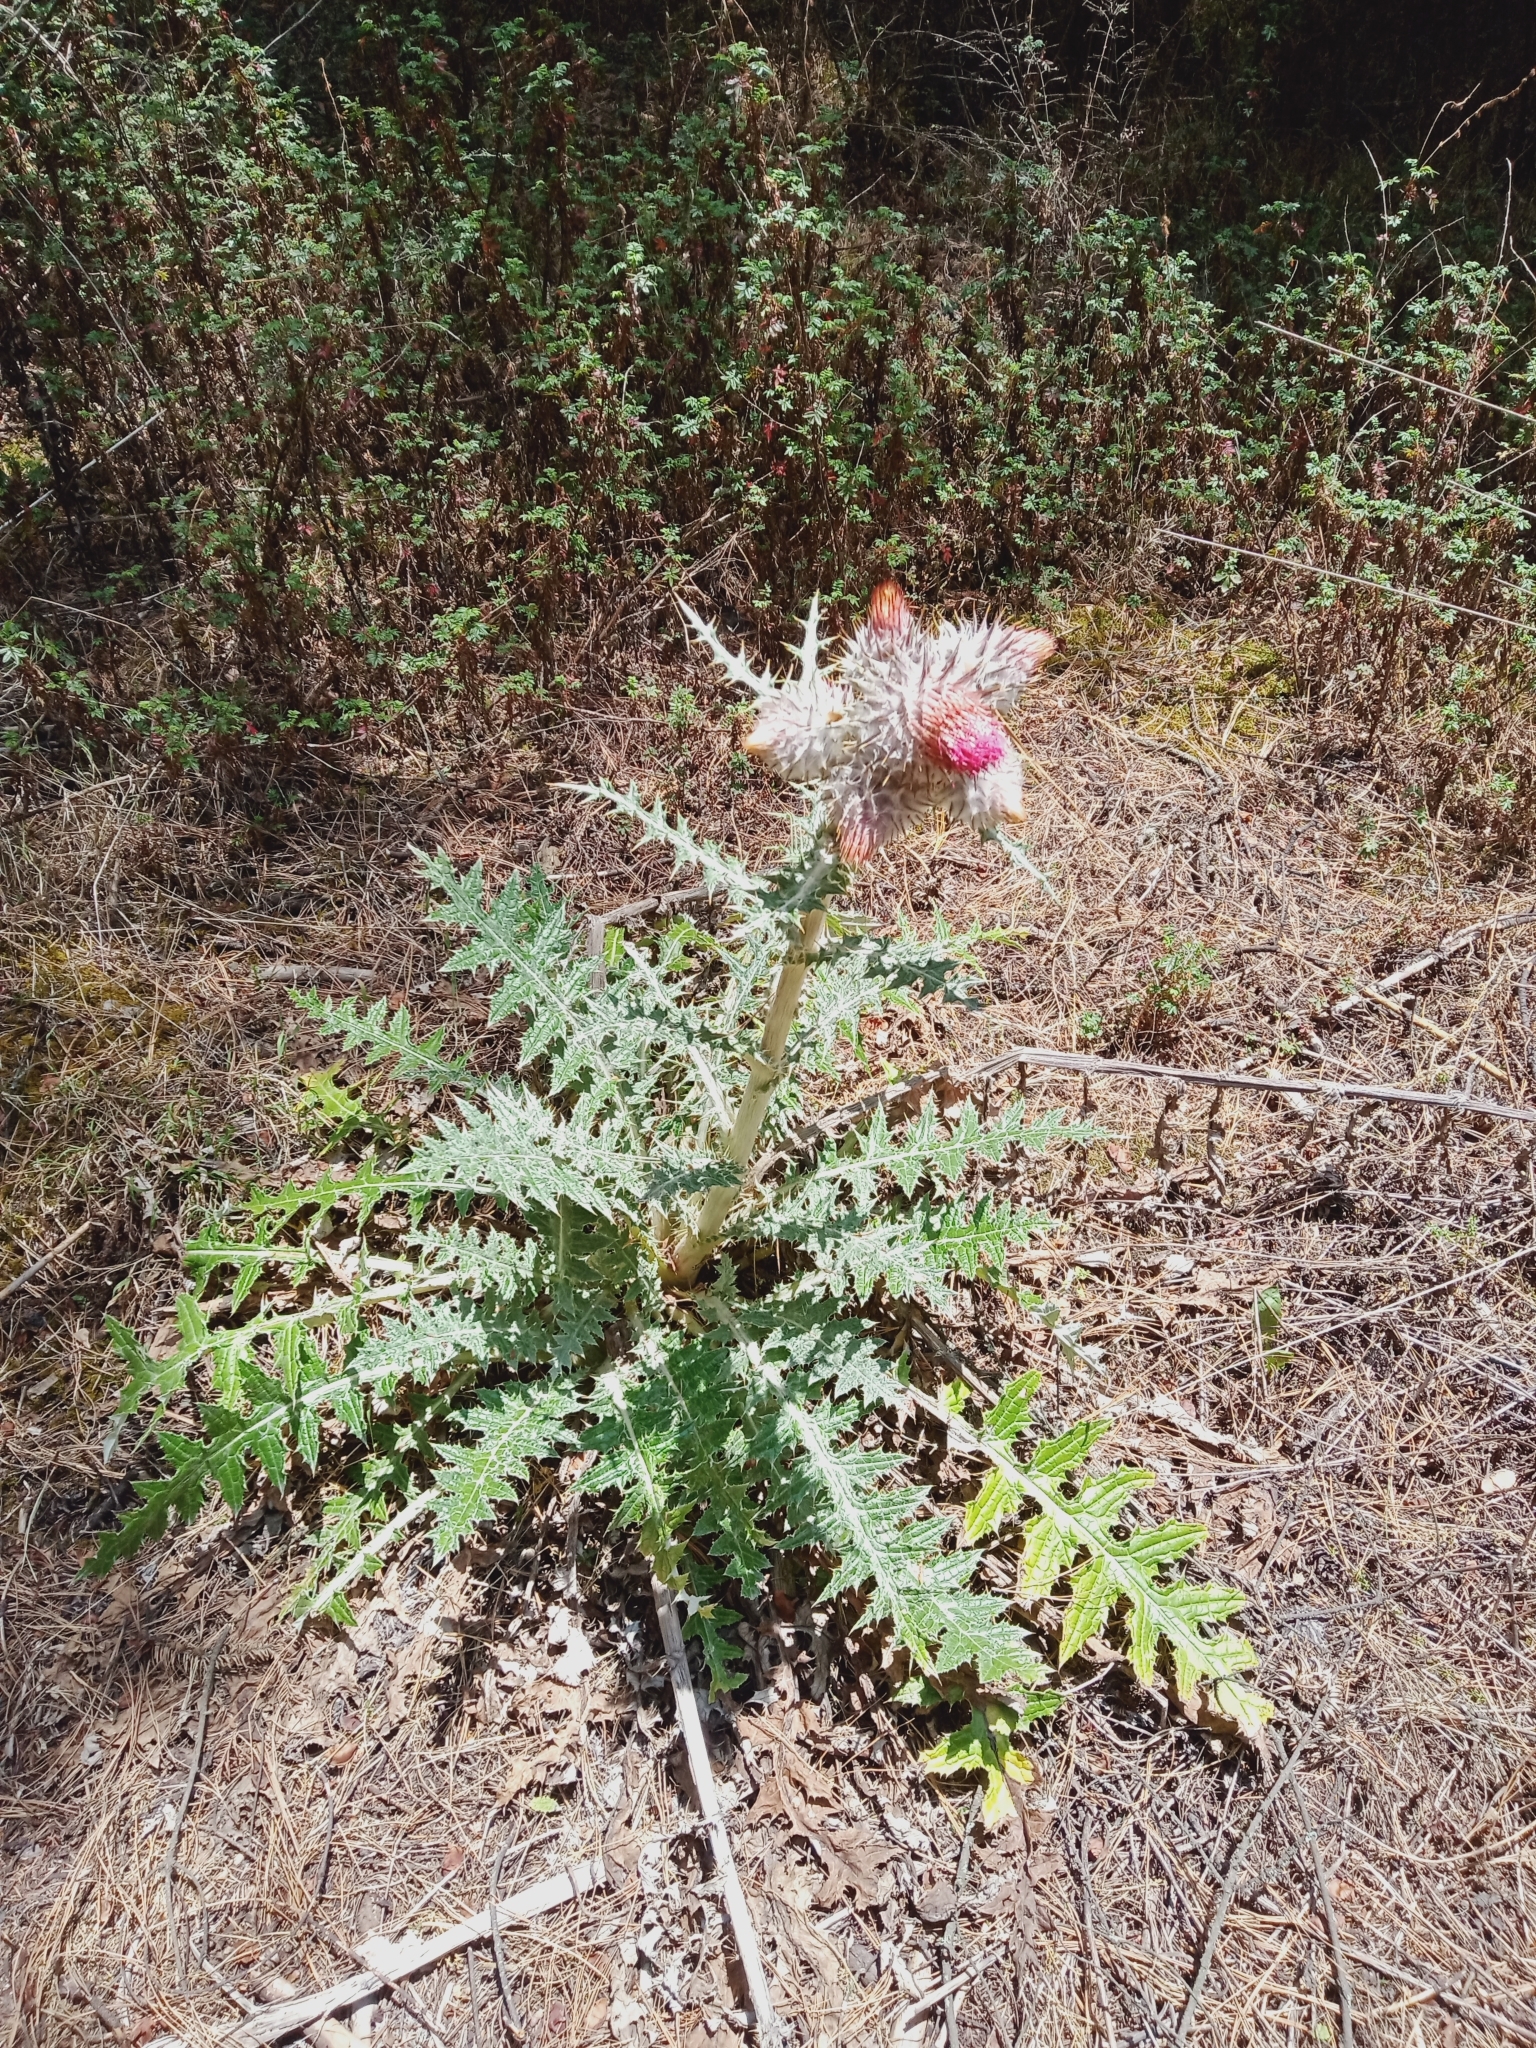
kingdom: Plantae
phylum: Tracheophyta
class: Magnoliopsida
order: Asterales
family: Asteraceae
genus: Cirsium
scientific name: Cirsium ehrenbergii
